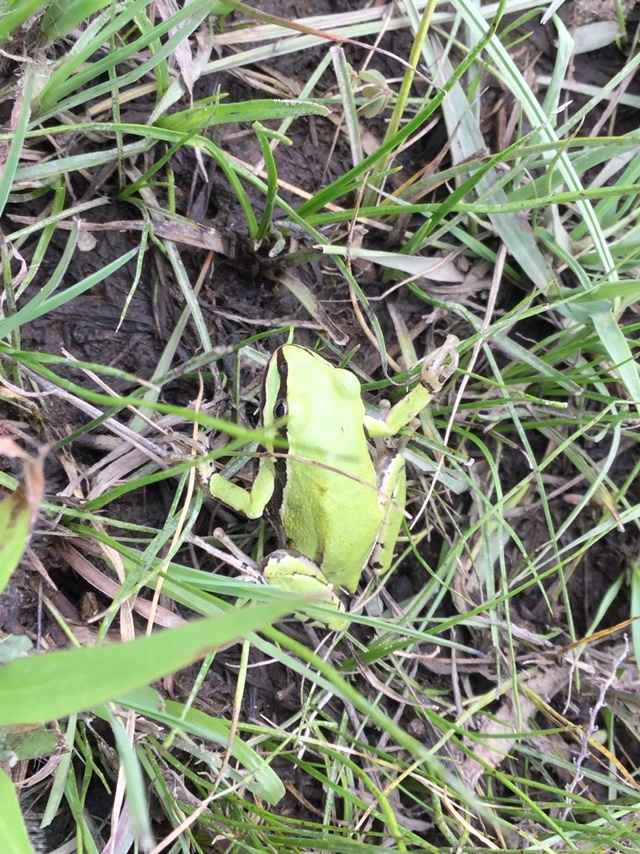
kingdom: Animalia
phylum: Chordata
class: Amphibia
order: Anura
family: Hylidae
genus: Dryophytes
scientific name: Dryophytes eximius
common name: Mountain treefrog
